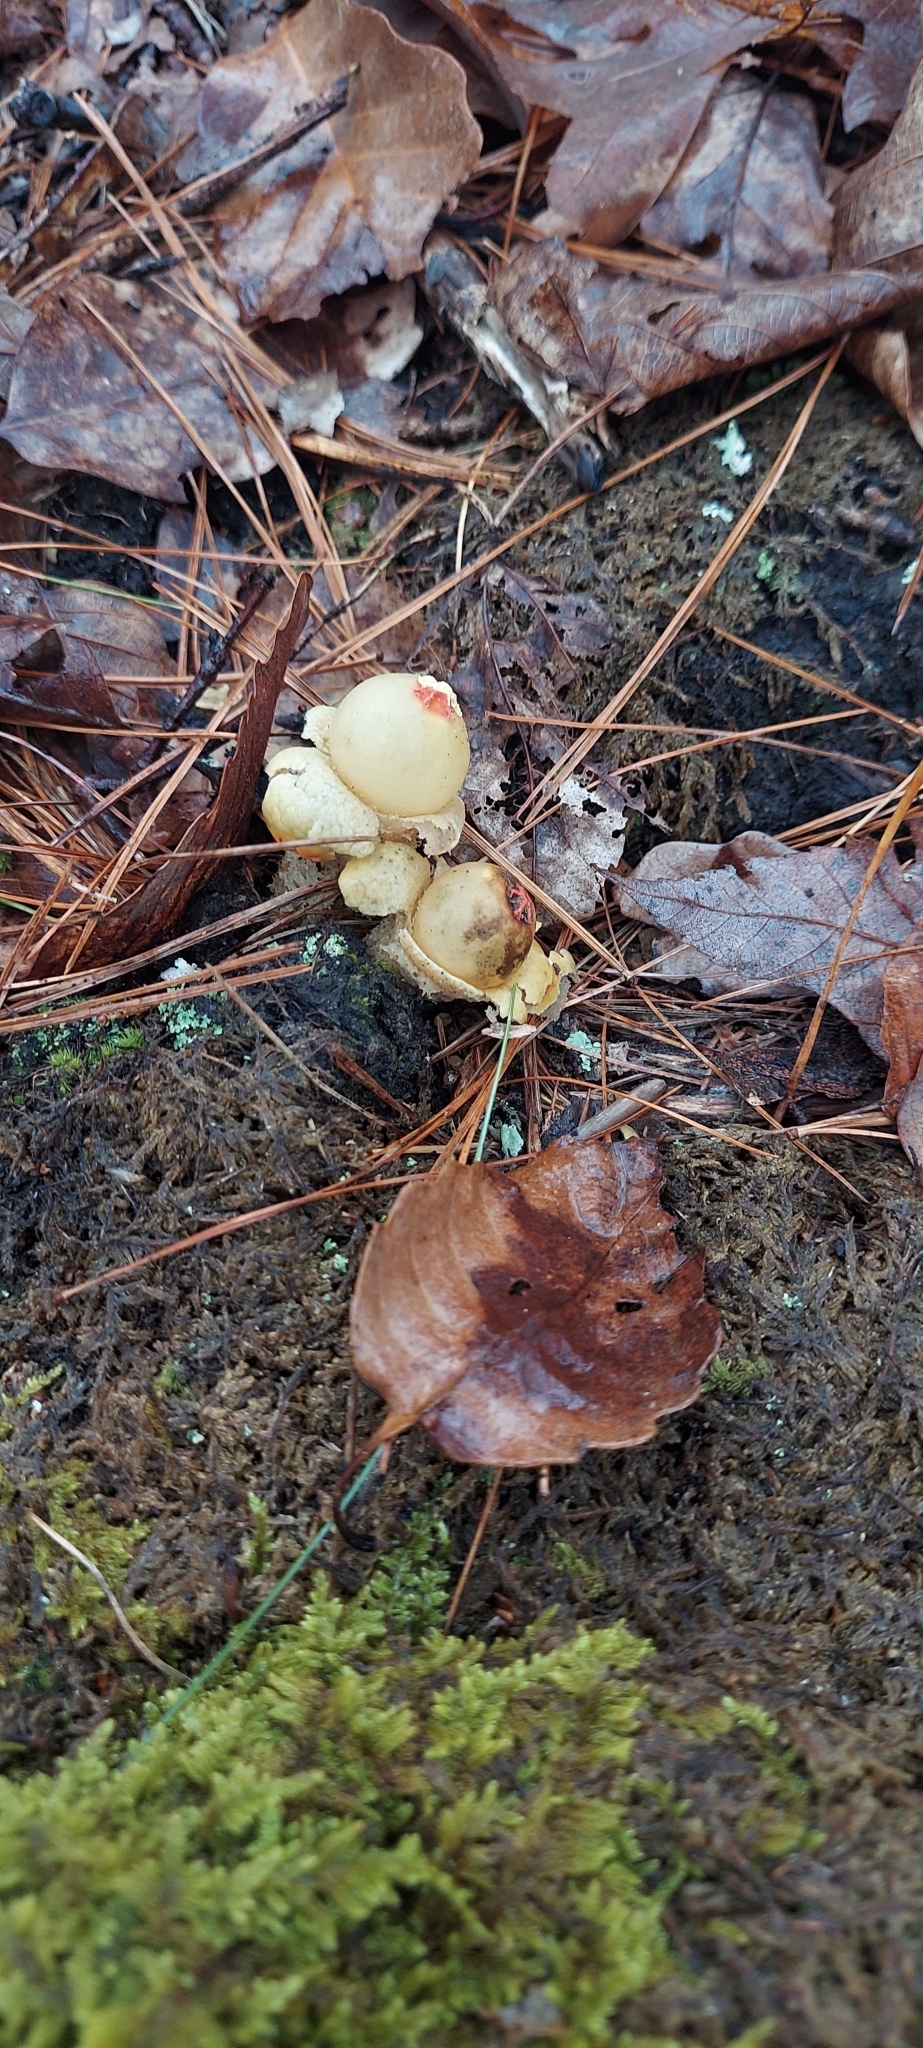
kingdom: Fungi
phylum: Basidiomycota
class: Agaricomycetes
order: Boletales
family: Calostomataceae
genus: Calostoma
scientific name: Calostoma lutescens
